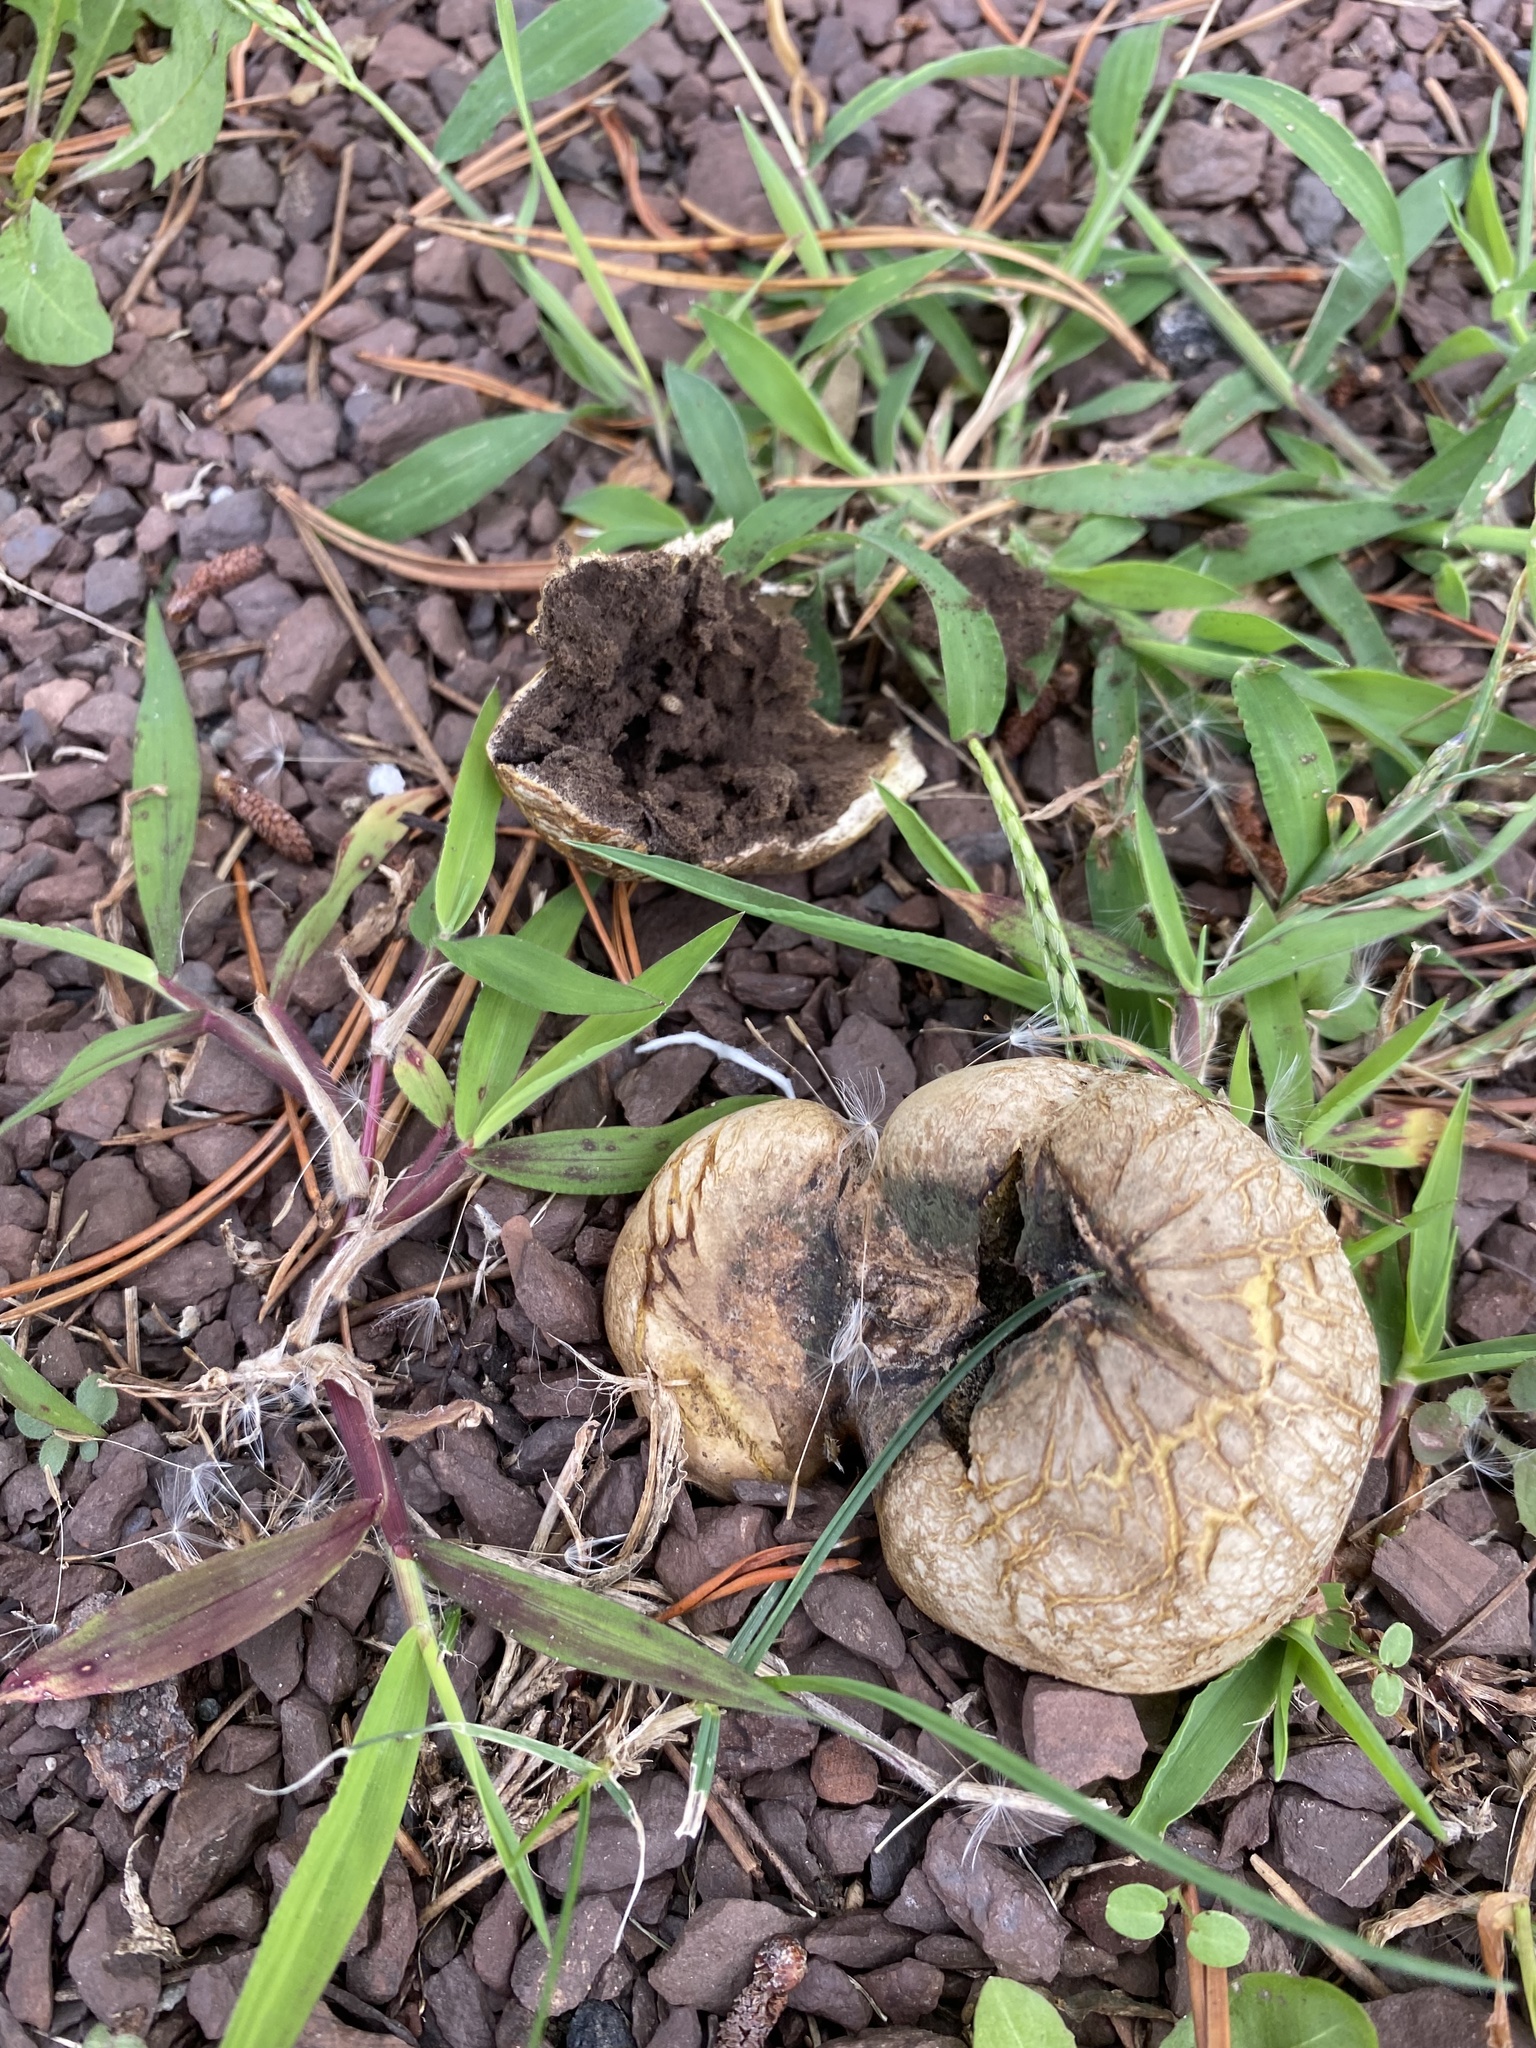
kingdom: Fungi
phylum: Basidiomycota
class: Agaricomycetes
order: Boletales
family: Sclerodermataceae
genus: Scleroderma
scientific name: Scleroderma polyrhizum
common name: Many-rooted earthball
